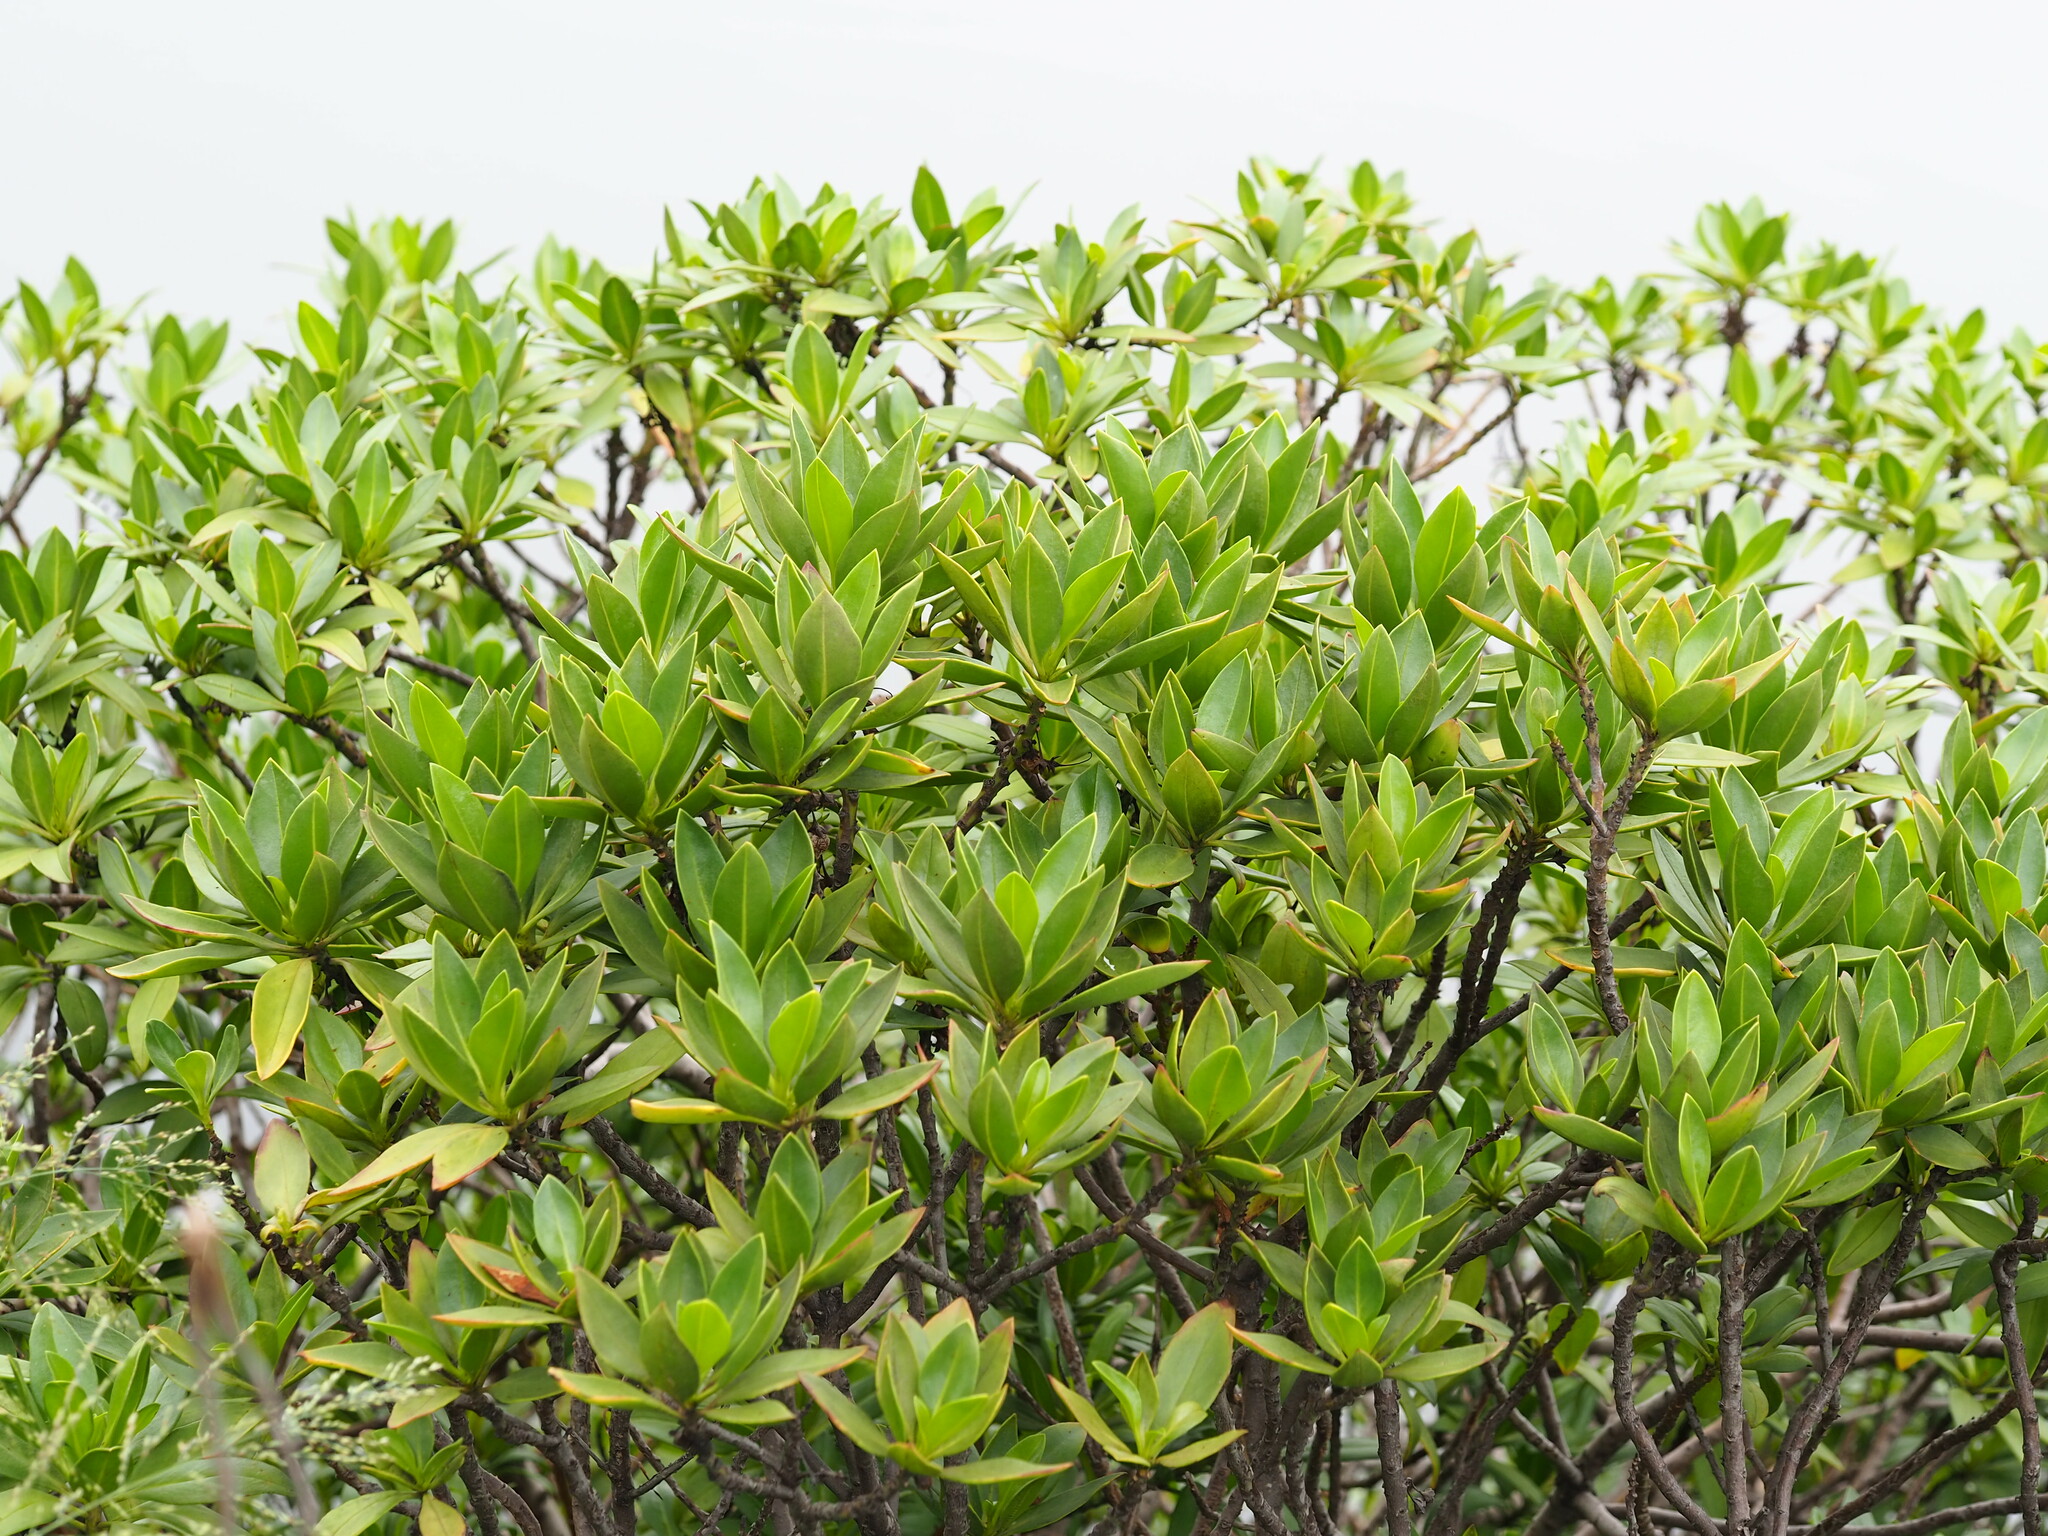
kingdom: Plantae
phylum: Tracheophyta
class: Magnoliopsida
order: Lamiales
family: Scrophulariaceae
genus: Myoporum
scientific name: Myoporum bontioides
